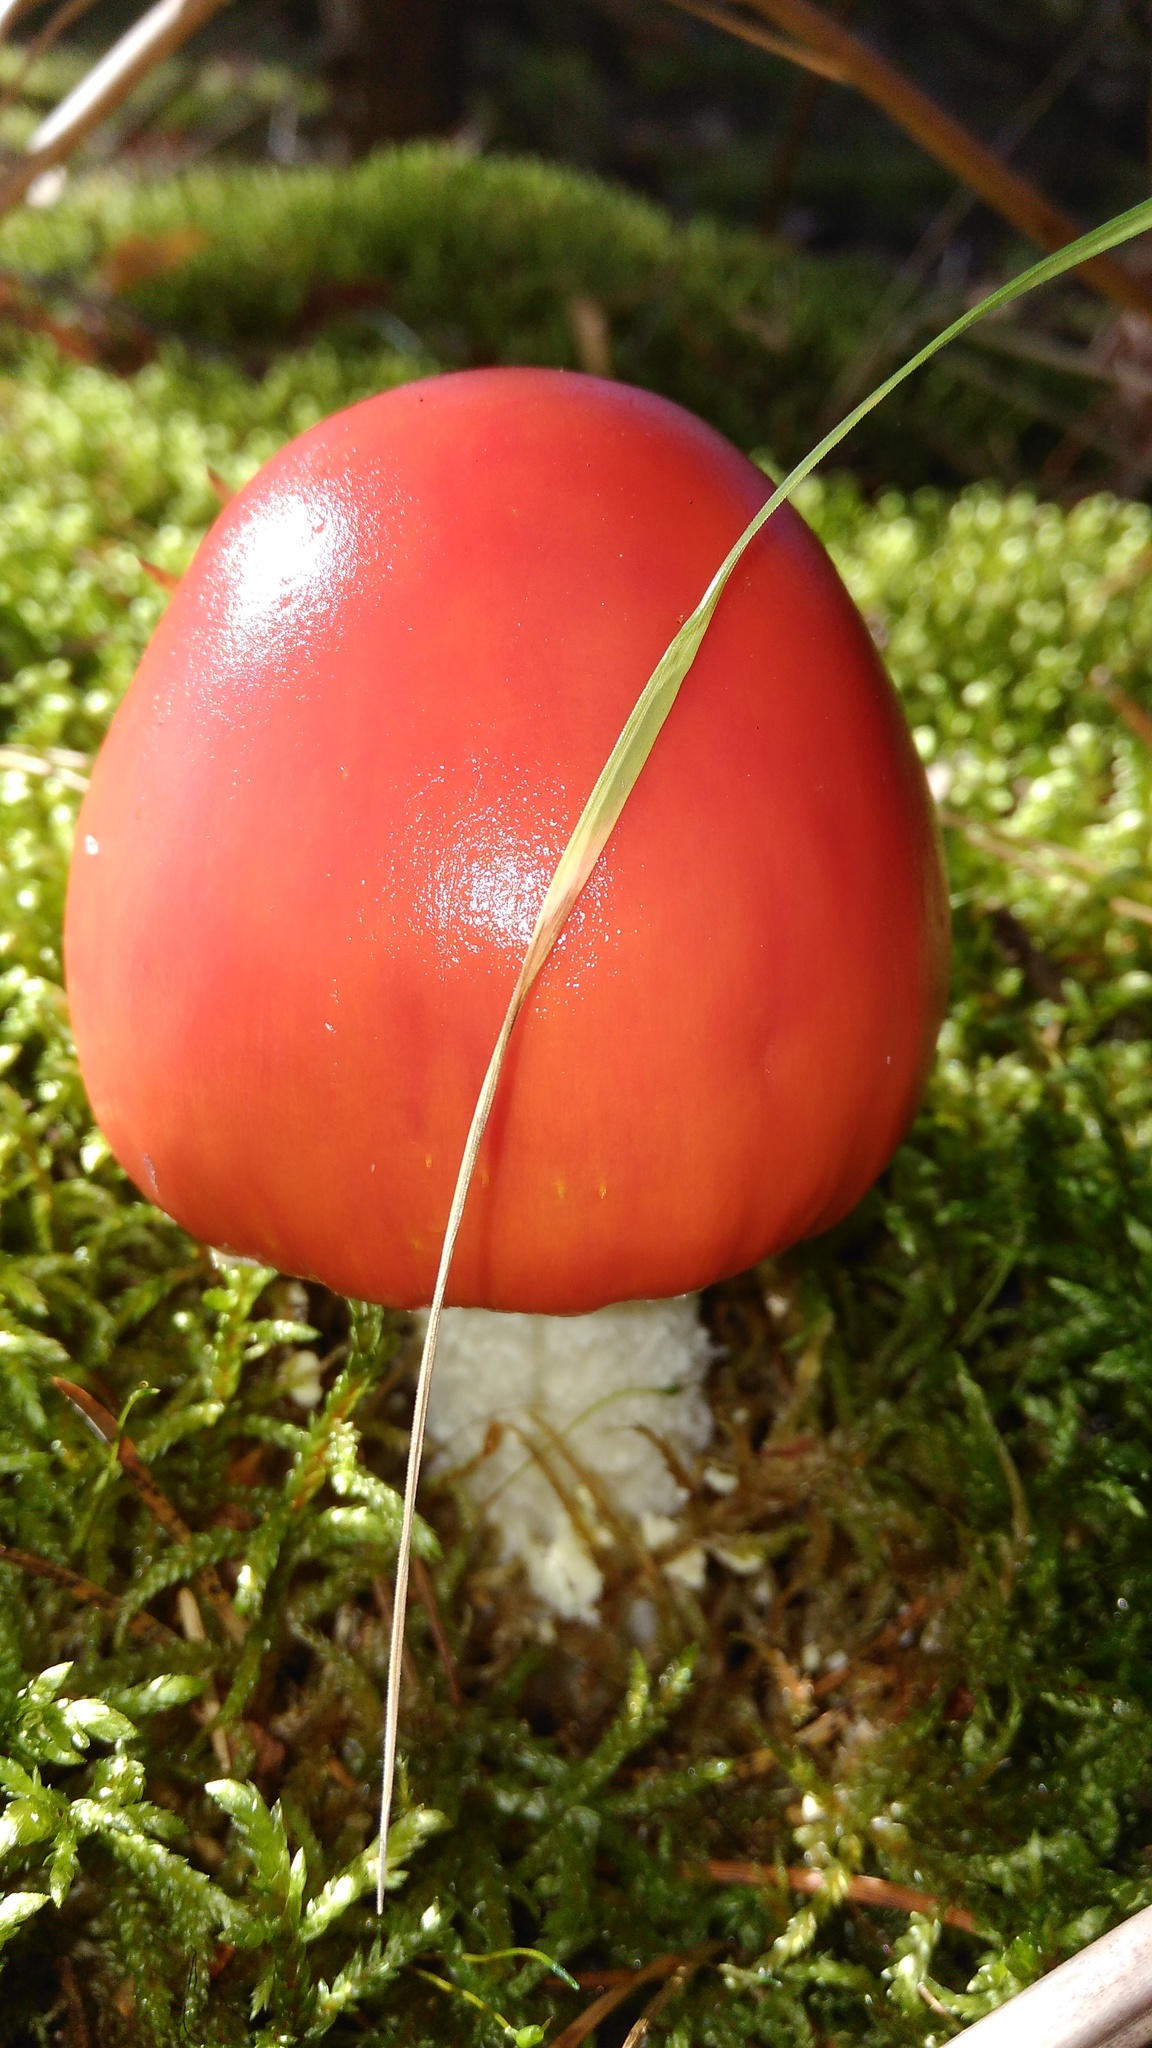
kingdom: Fungi
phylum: Basidiomycota
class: Agaricomycetes
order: Agaricales
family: Amanitaceae
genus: Amanita
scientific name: Amanita muscaria
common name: Fly agaric
